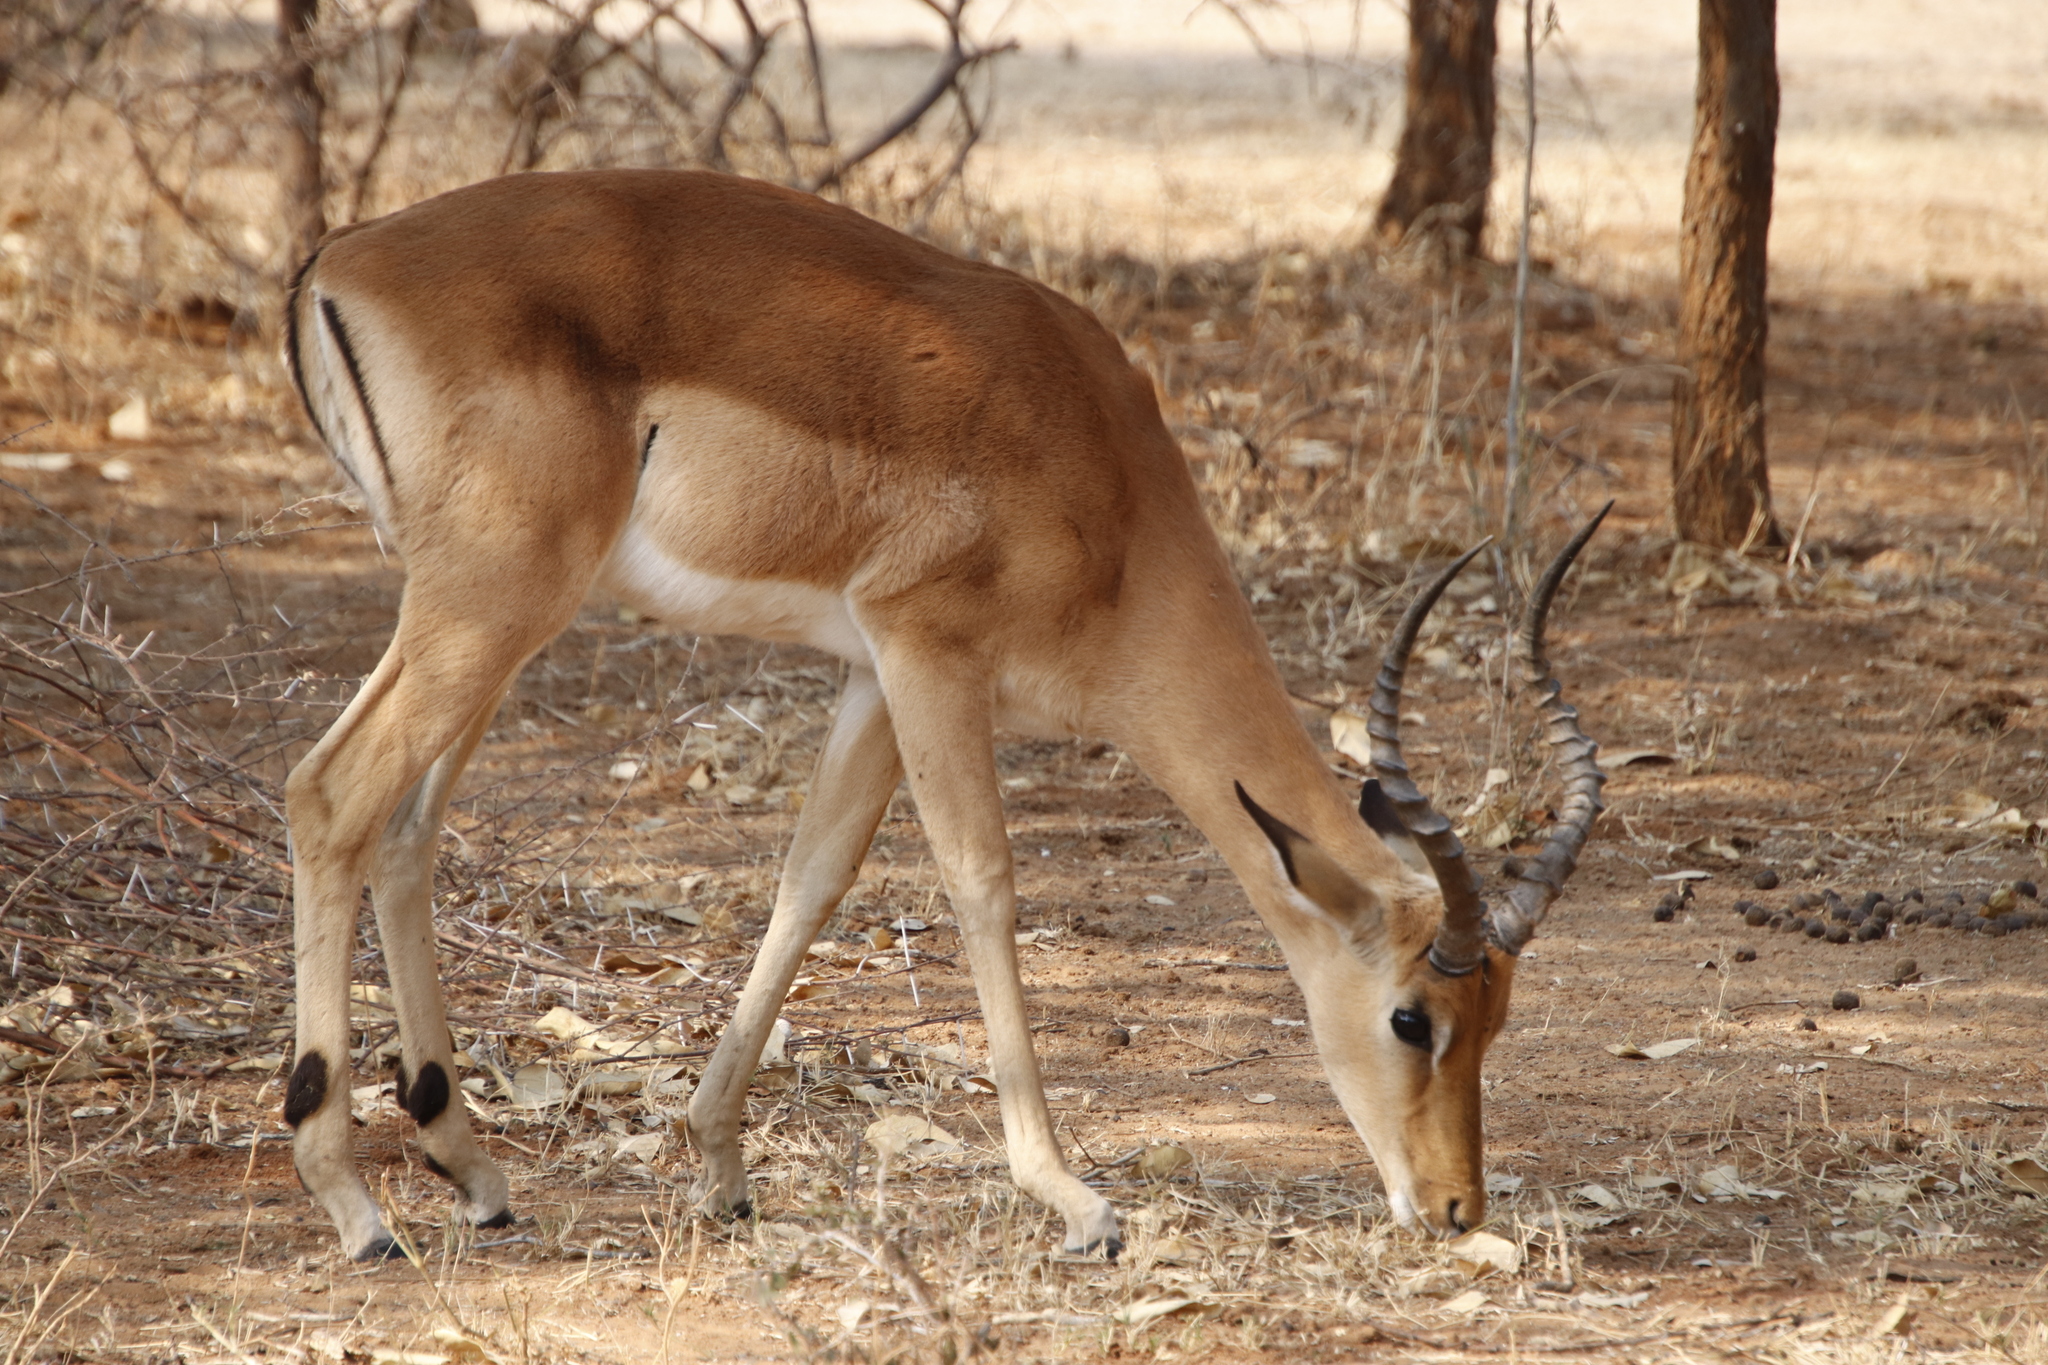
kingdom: Animalia
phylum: Chordata
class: Mammalia
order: Artiodactyla
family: Bovidae
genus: Aepyceros
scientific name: Aepyceros melampus
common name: Impala
